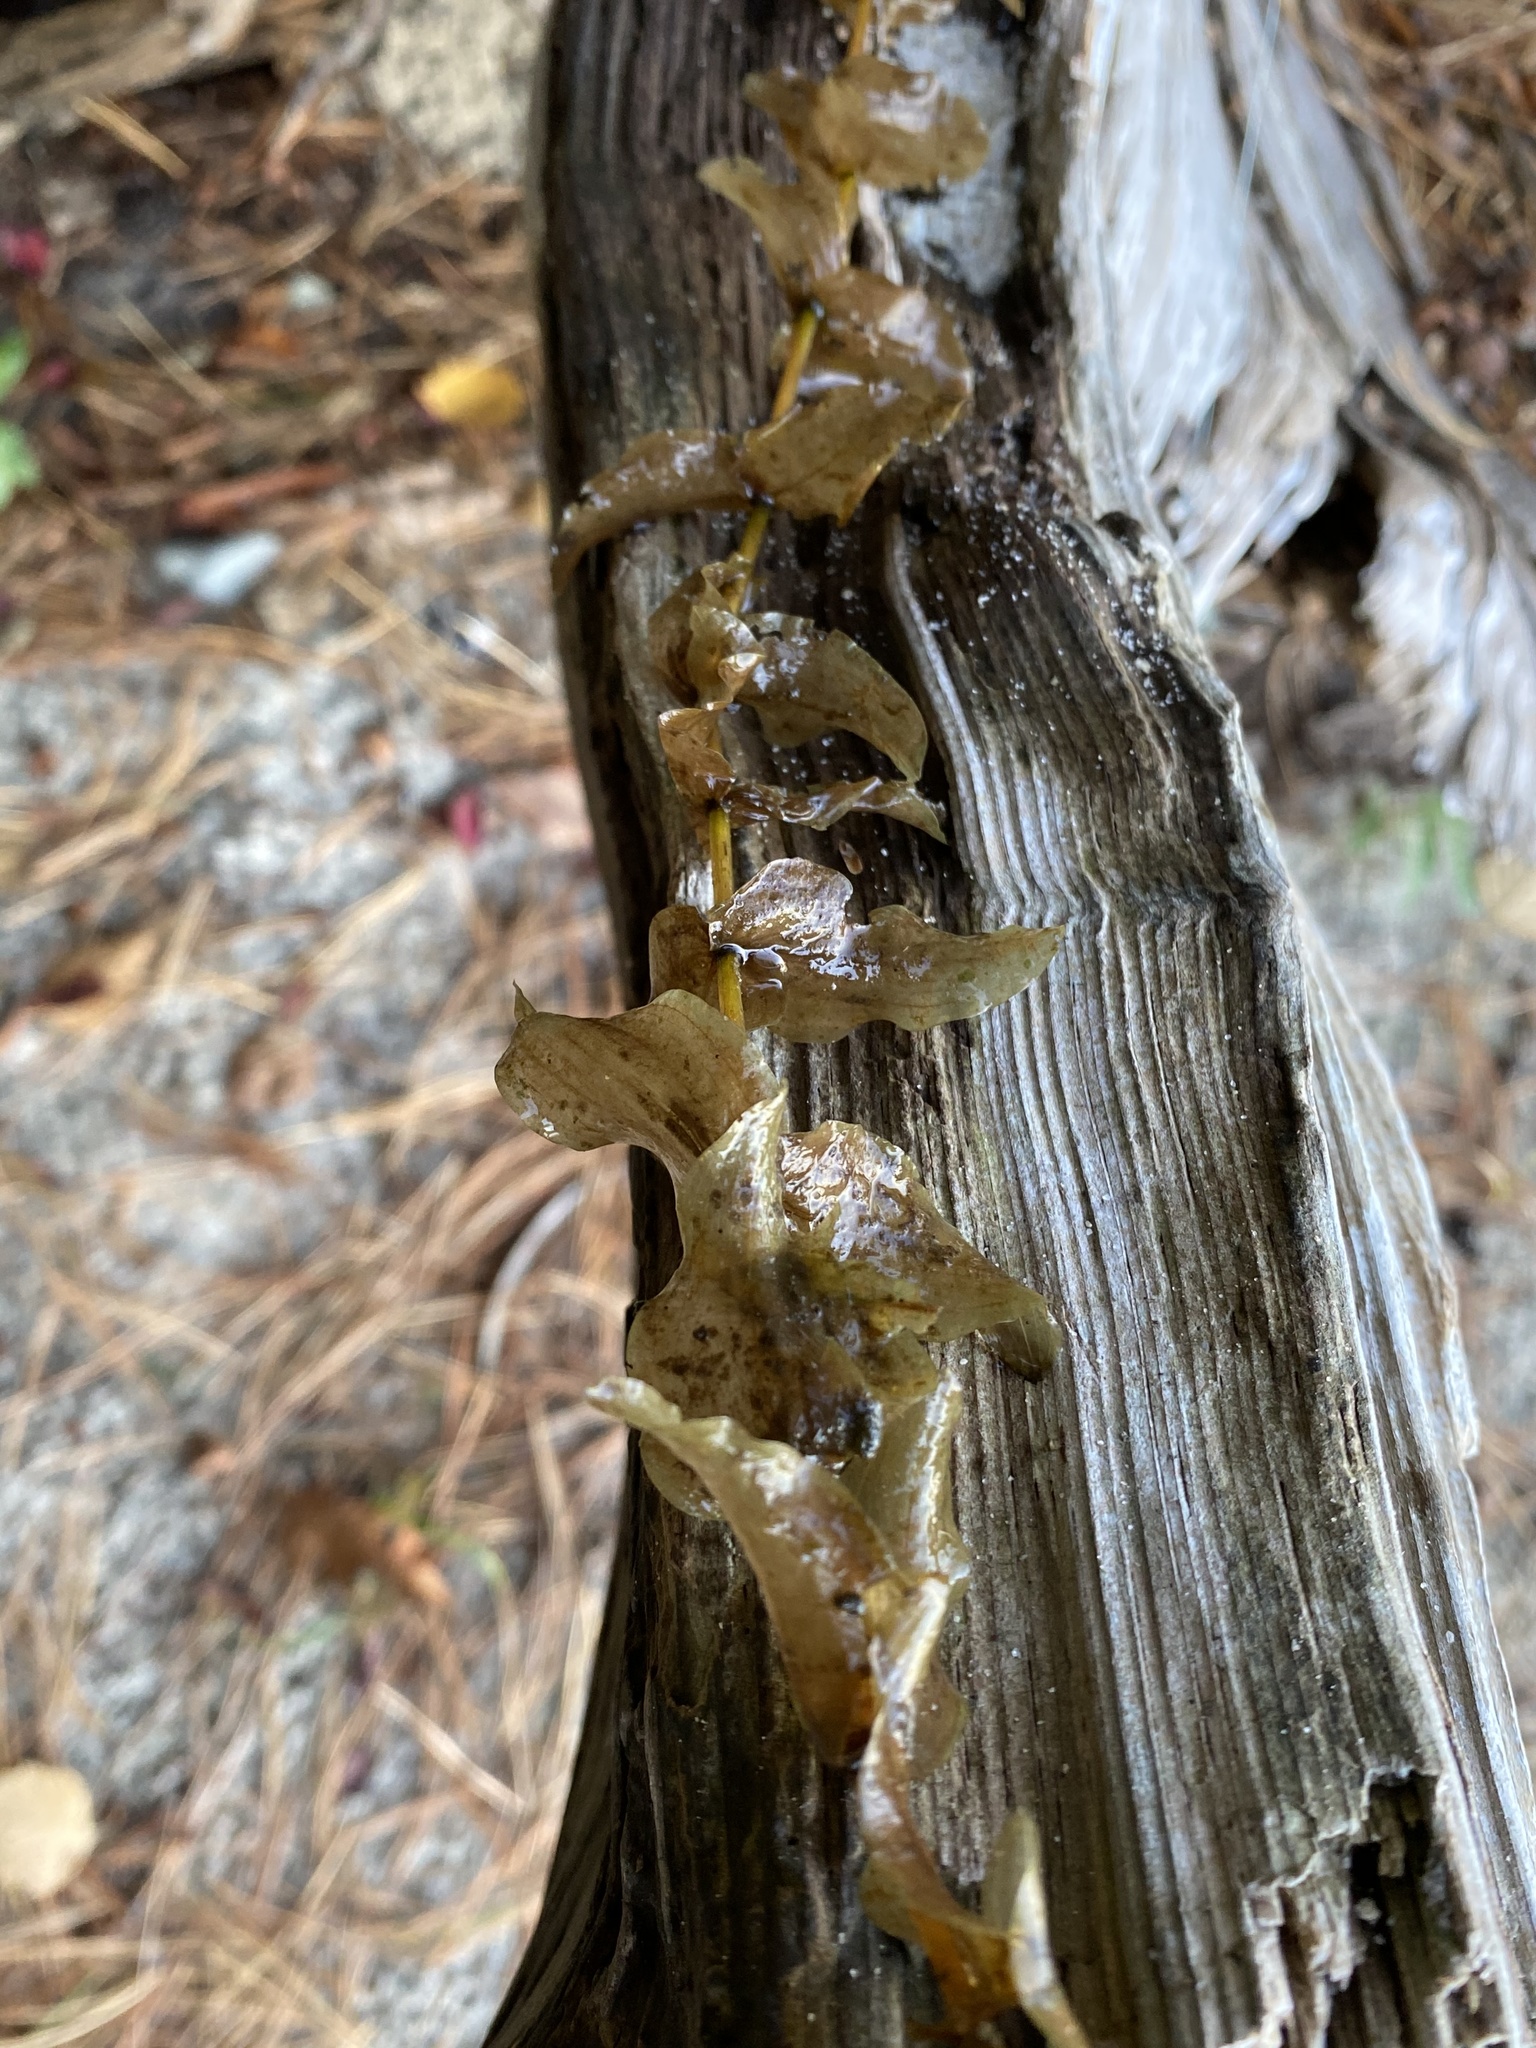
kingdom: Plantae
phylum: Tracheophyta
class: Liliopsida
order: Alismatales
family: Potamogetonaceae
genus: Potamogeton
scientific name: Potamogeton perfoliatus
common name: Perfoliate pondweed
